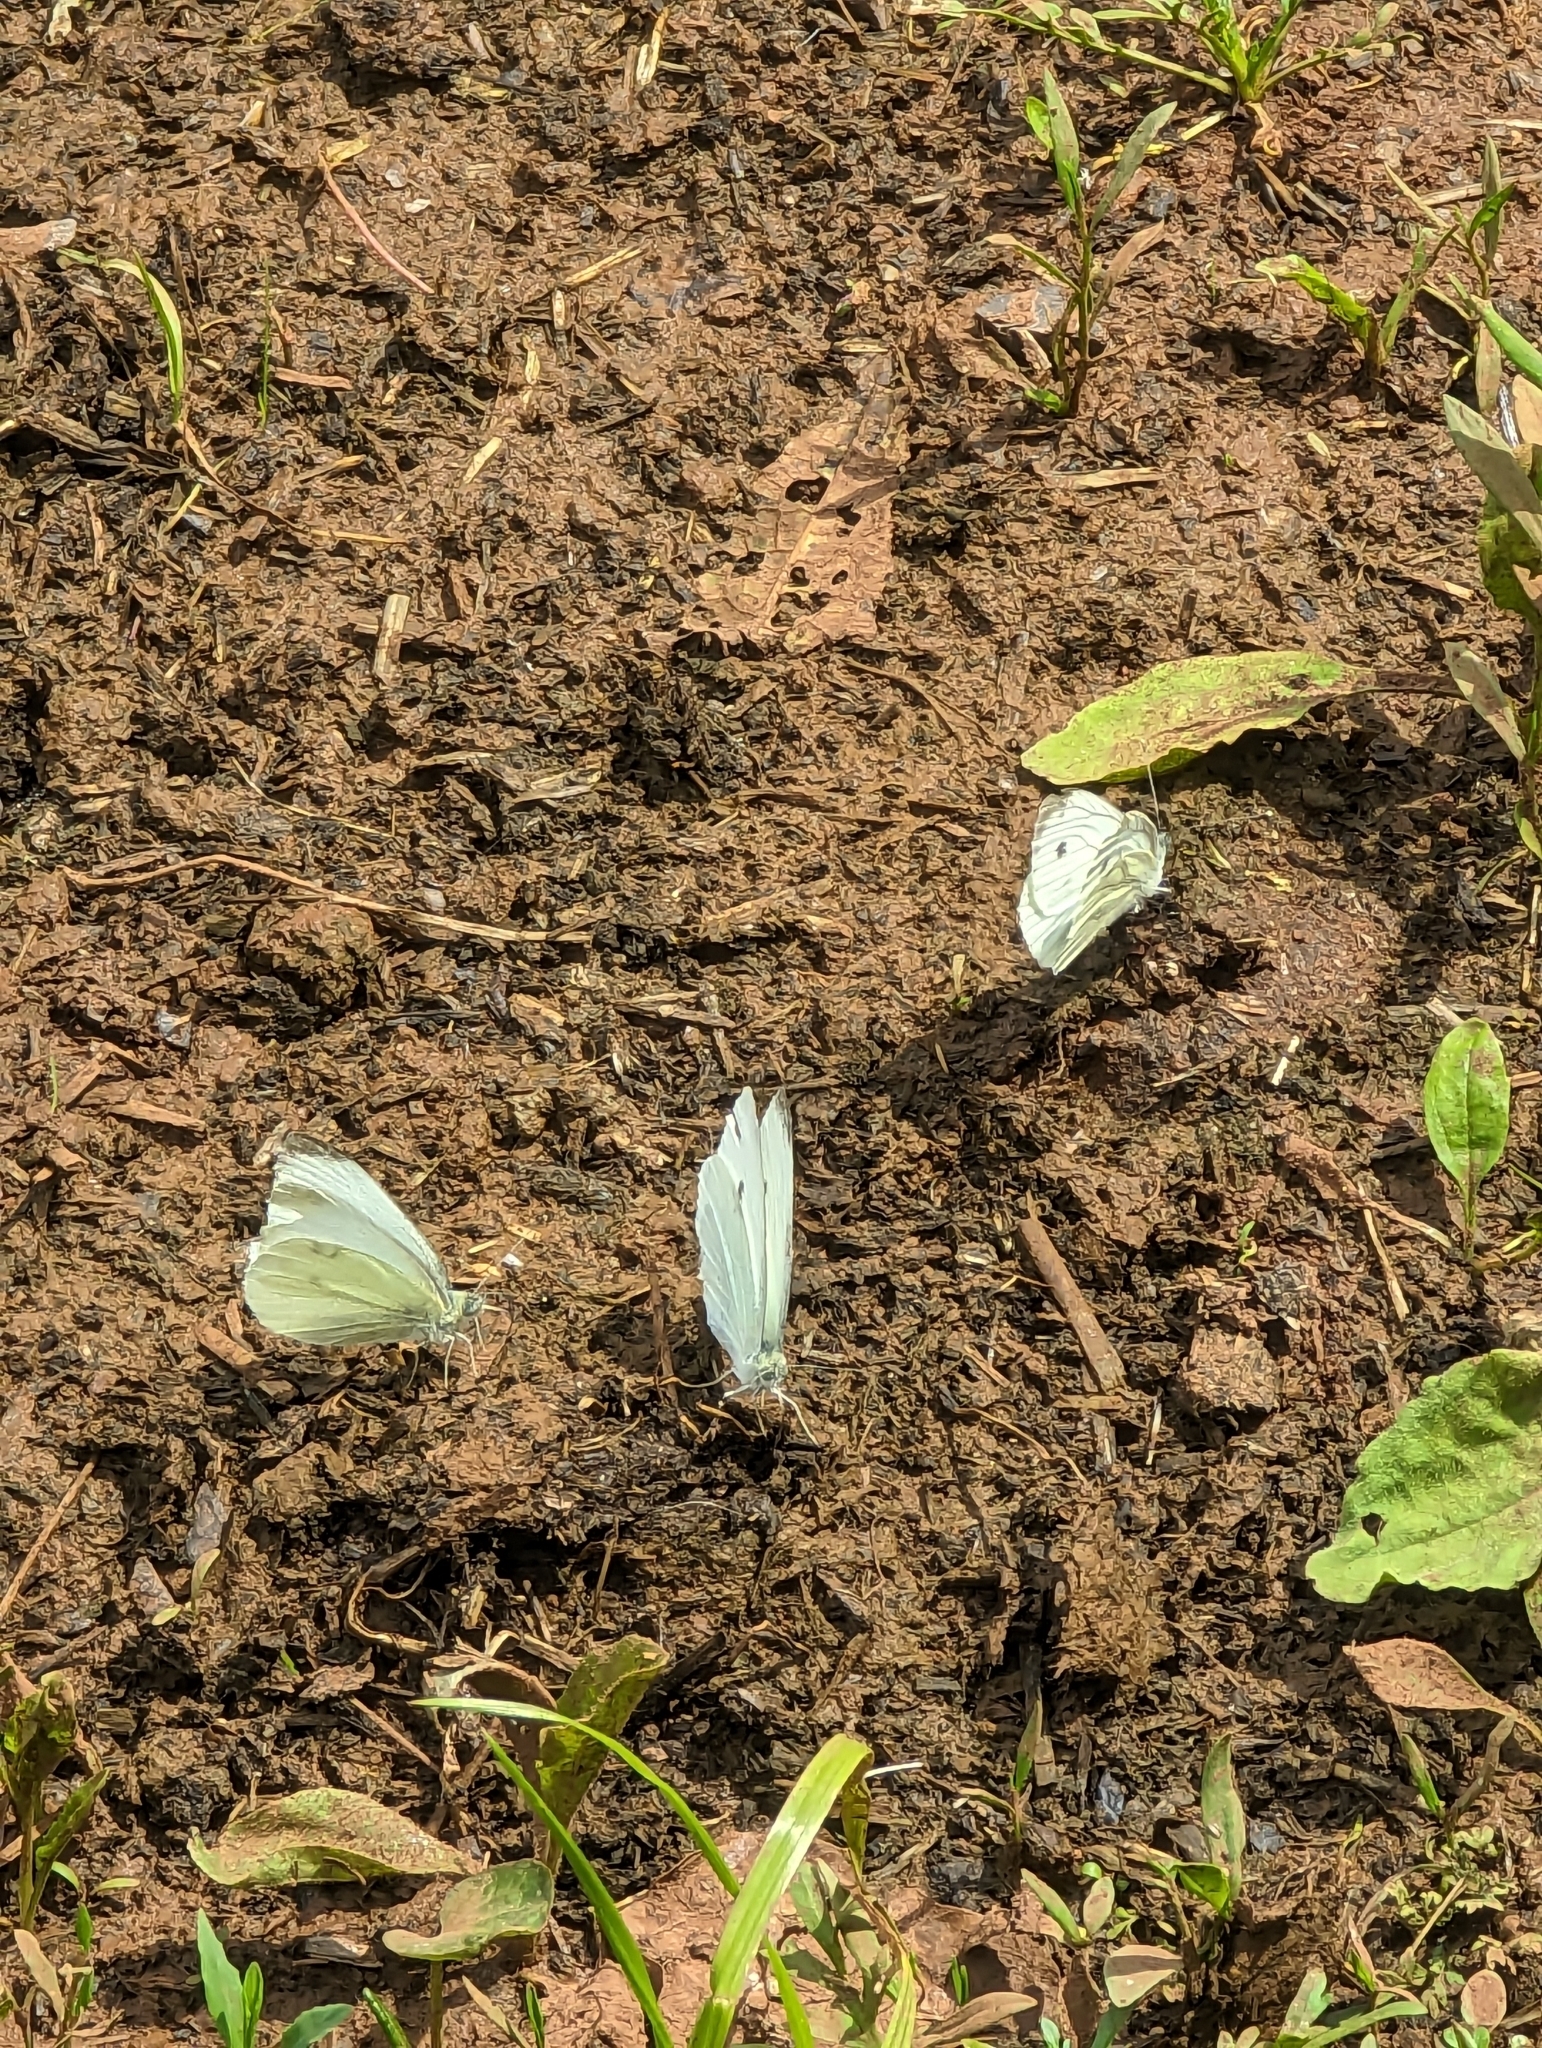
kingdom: Animalia
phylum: Arthropoda
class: Insecta
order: Lepidoptera
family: Pieridae
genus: Pieris
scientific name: Pieris rapae
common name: Small white
